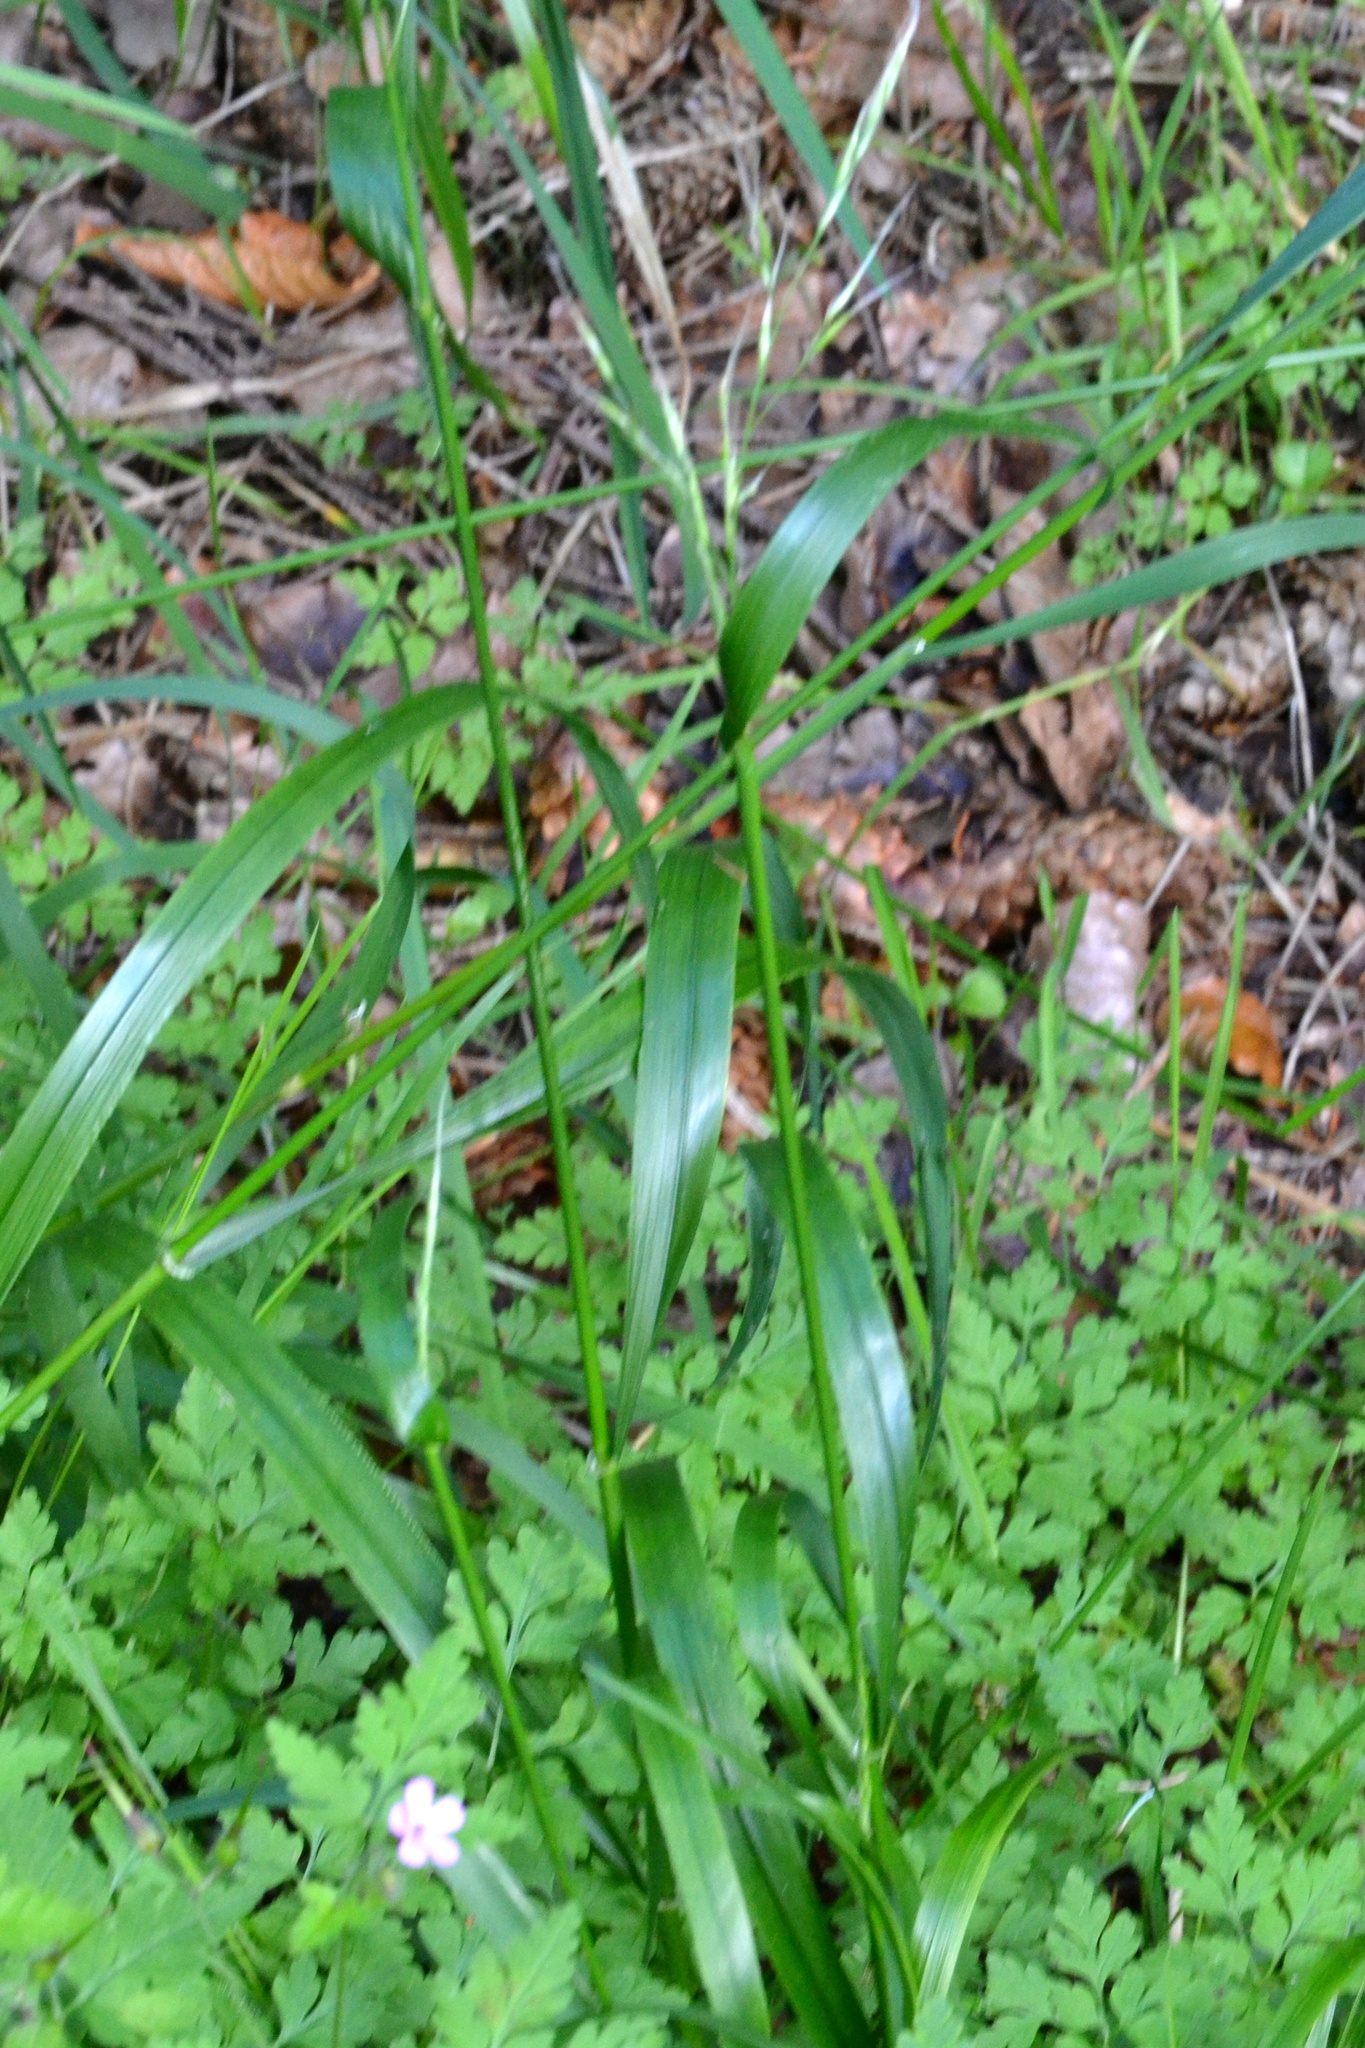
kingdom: Plantae
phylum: Tracheophyta
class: Liliopsida
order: Poales
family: Poaceae
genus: Lolium
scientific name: Lolium giganteum
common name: Giant fescue
